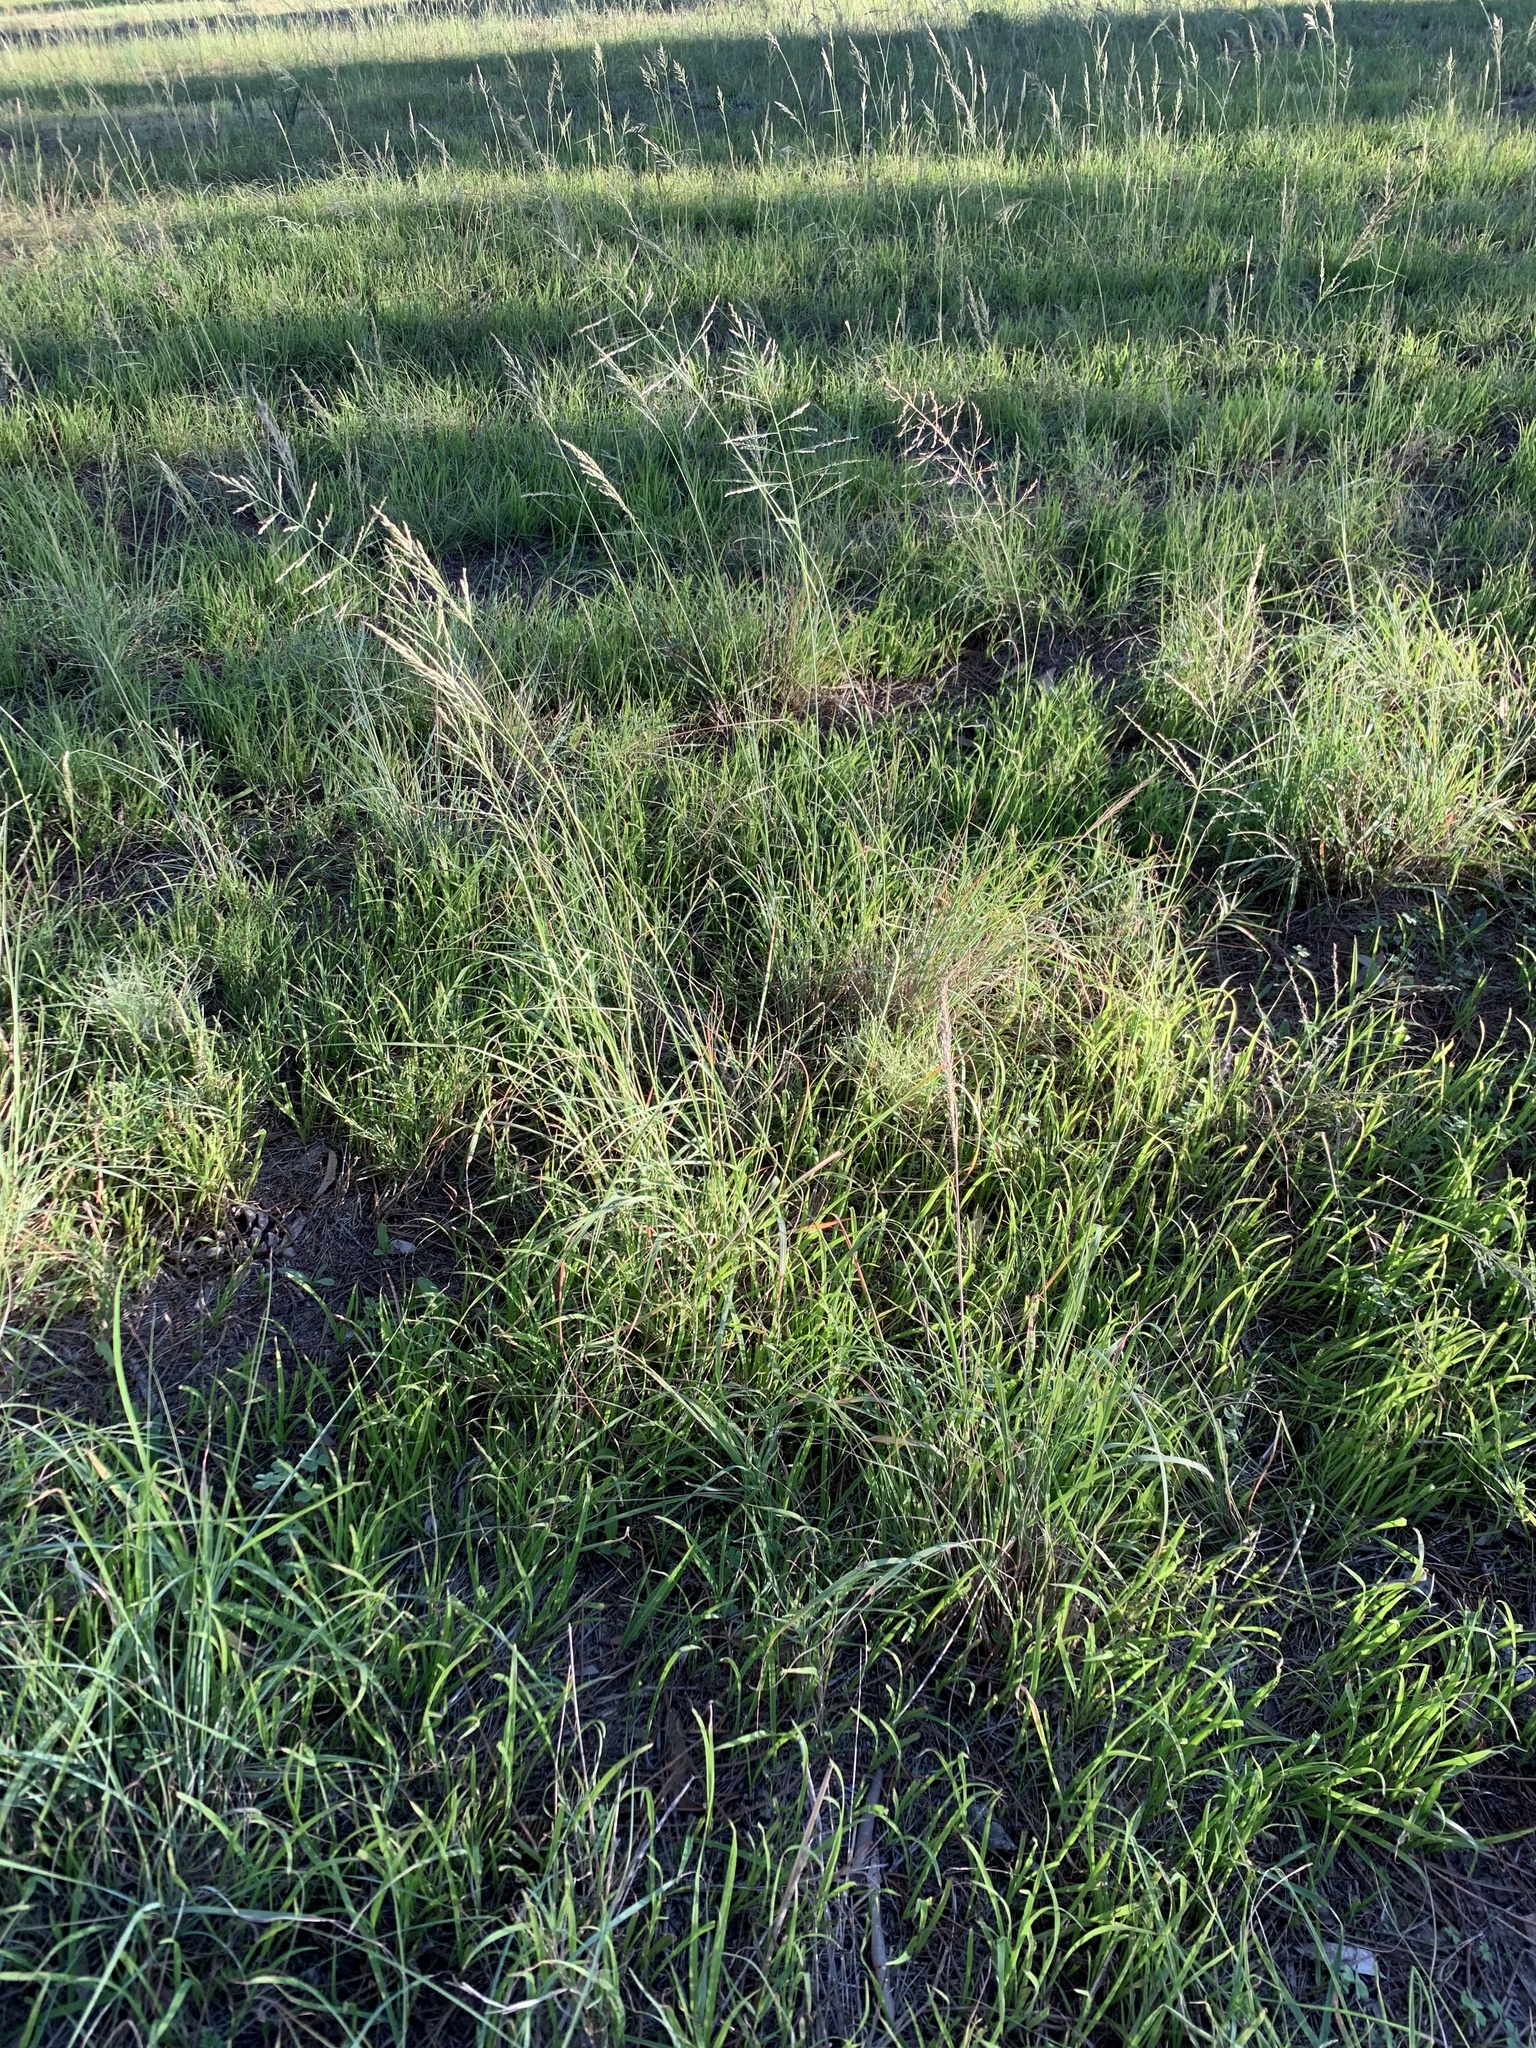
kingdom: Plantae
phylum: Tracheophyta
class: Liliopsida
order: Poales
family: Poaceae
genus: Eragrostis
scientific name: Eragrostis curvula
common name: African love-grass
